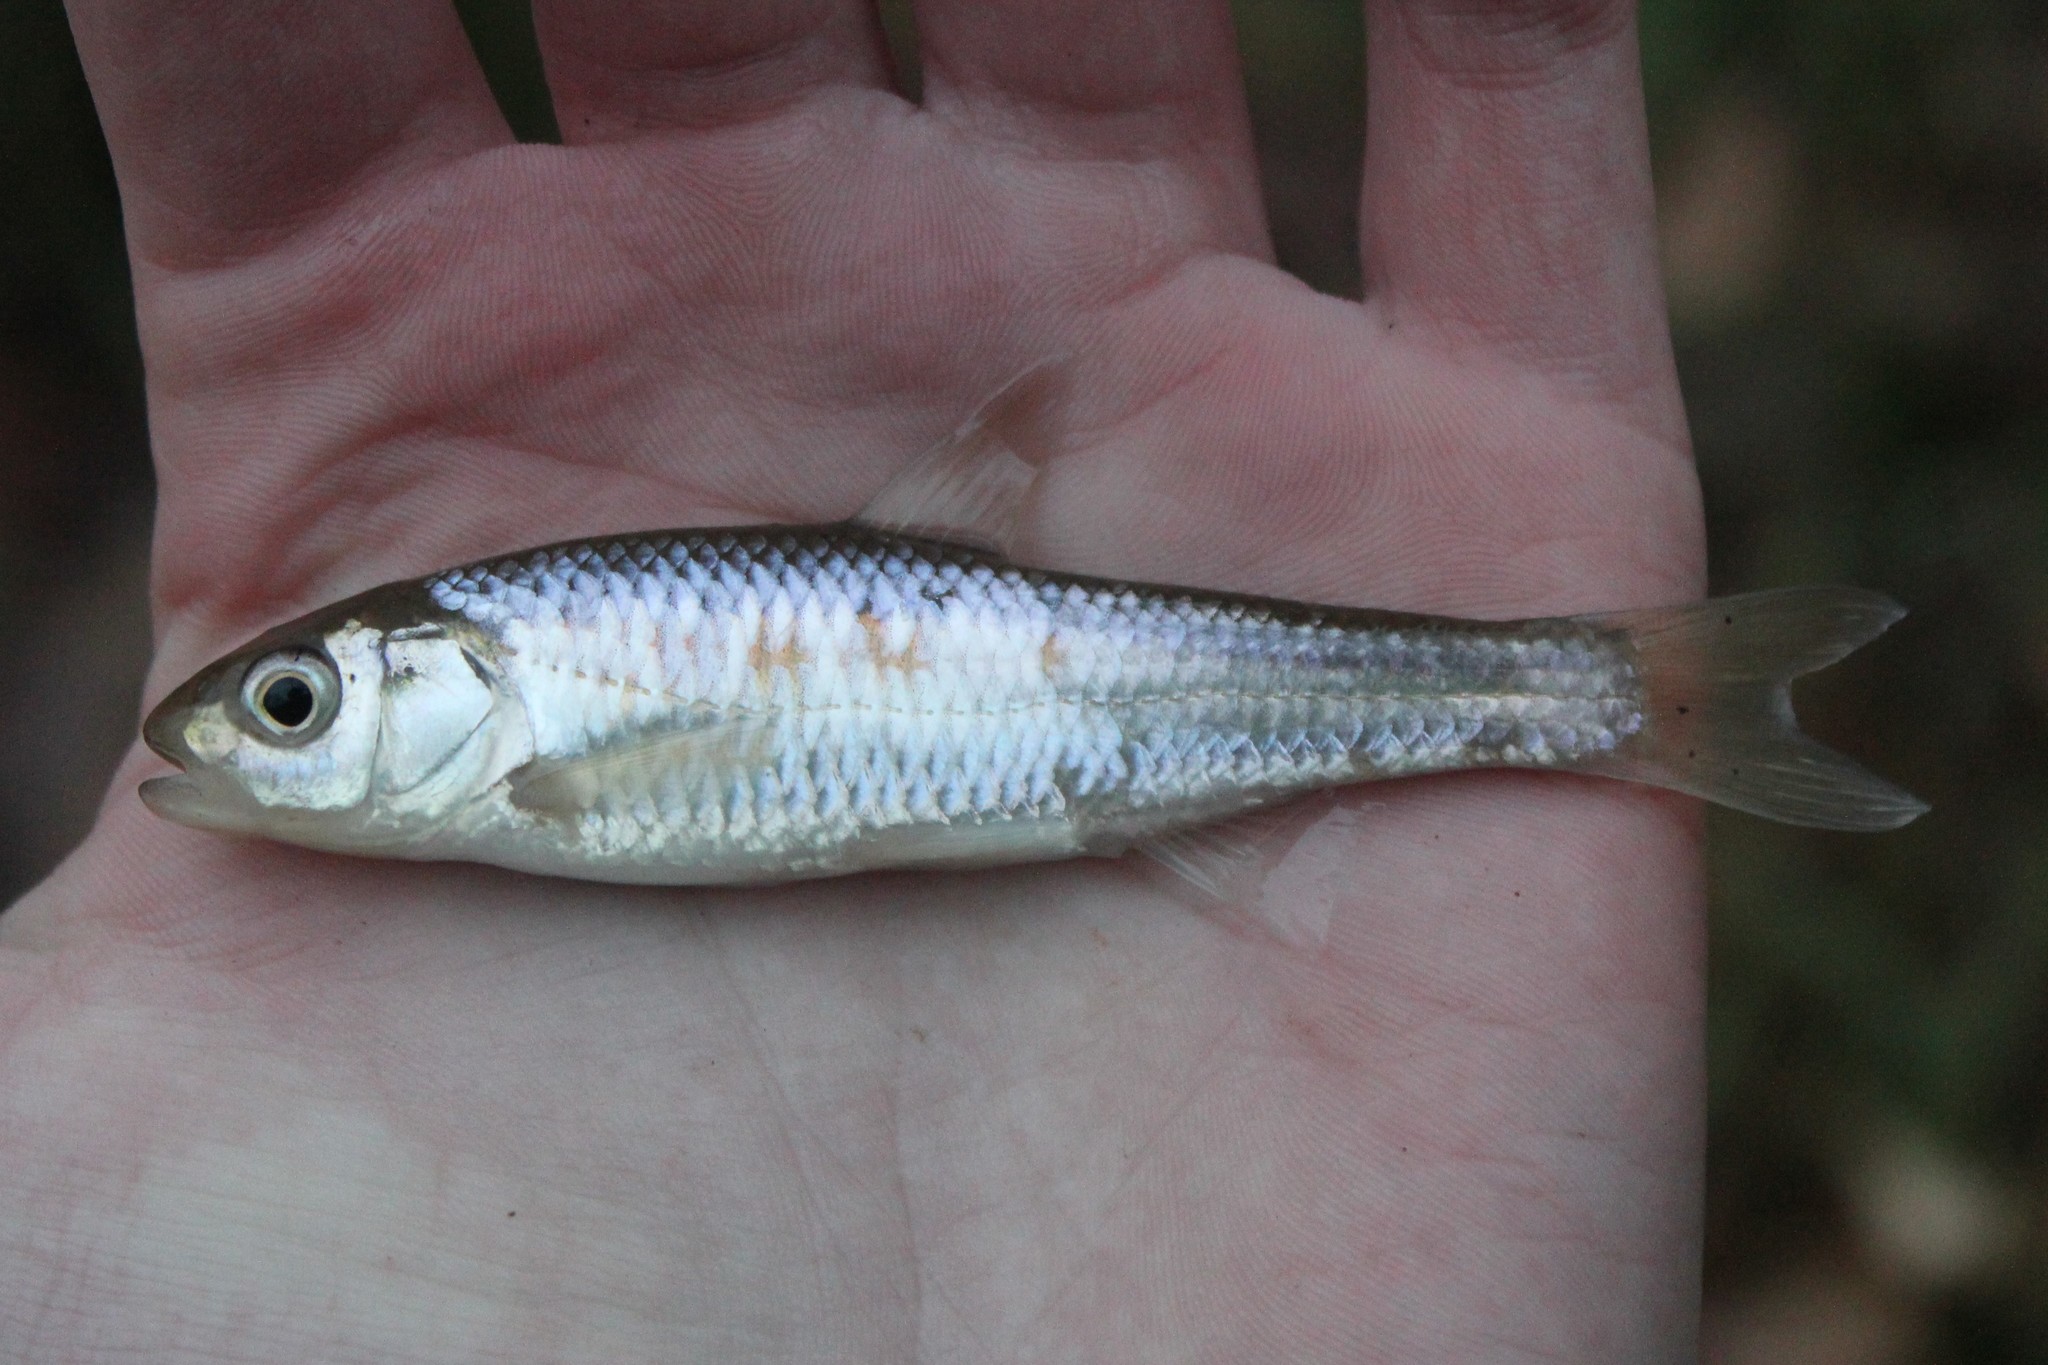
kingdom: Animalia
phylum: Chordata
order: Cypriniformes
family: Cyprinidae
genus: Luxilus
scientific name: Luxilus chrysocephalus
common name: Striped shiner
